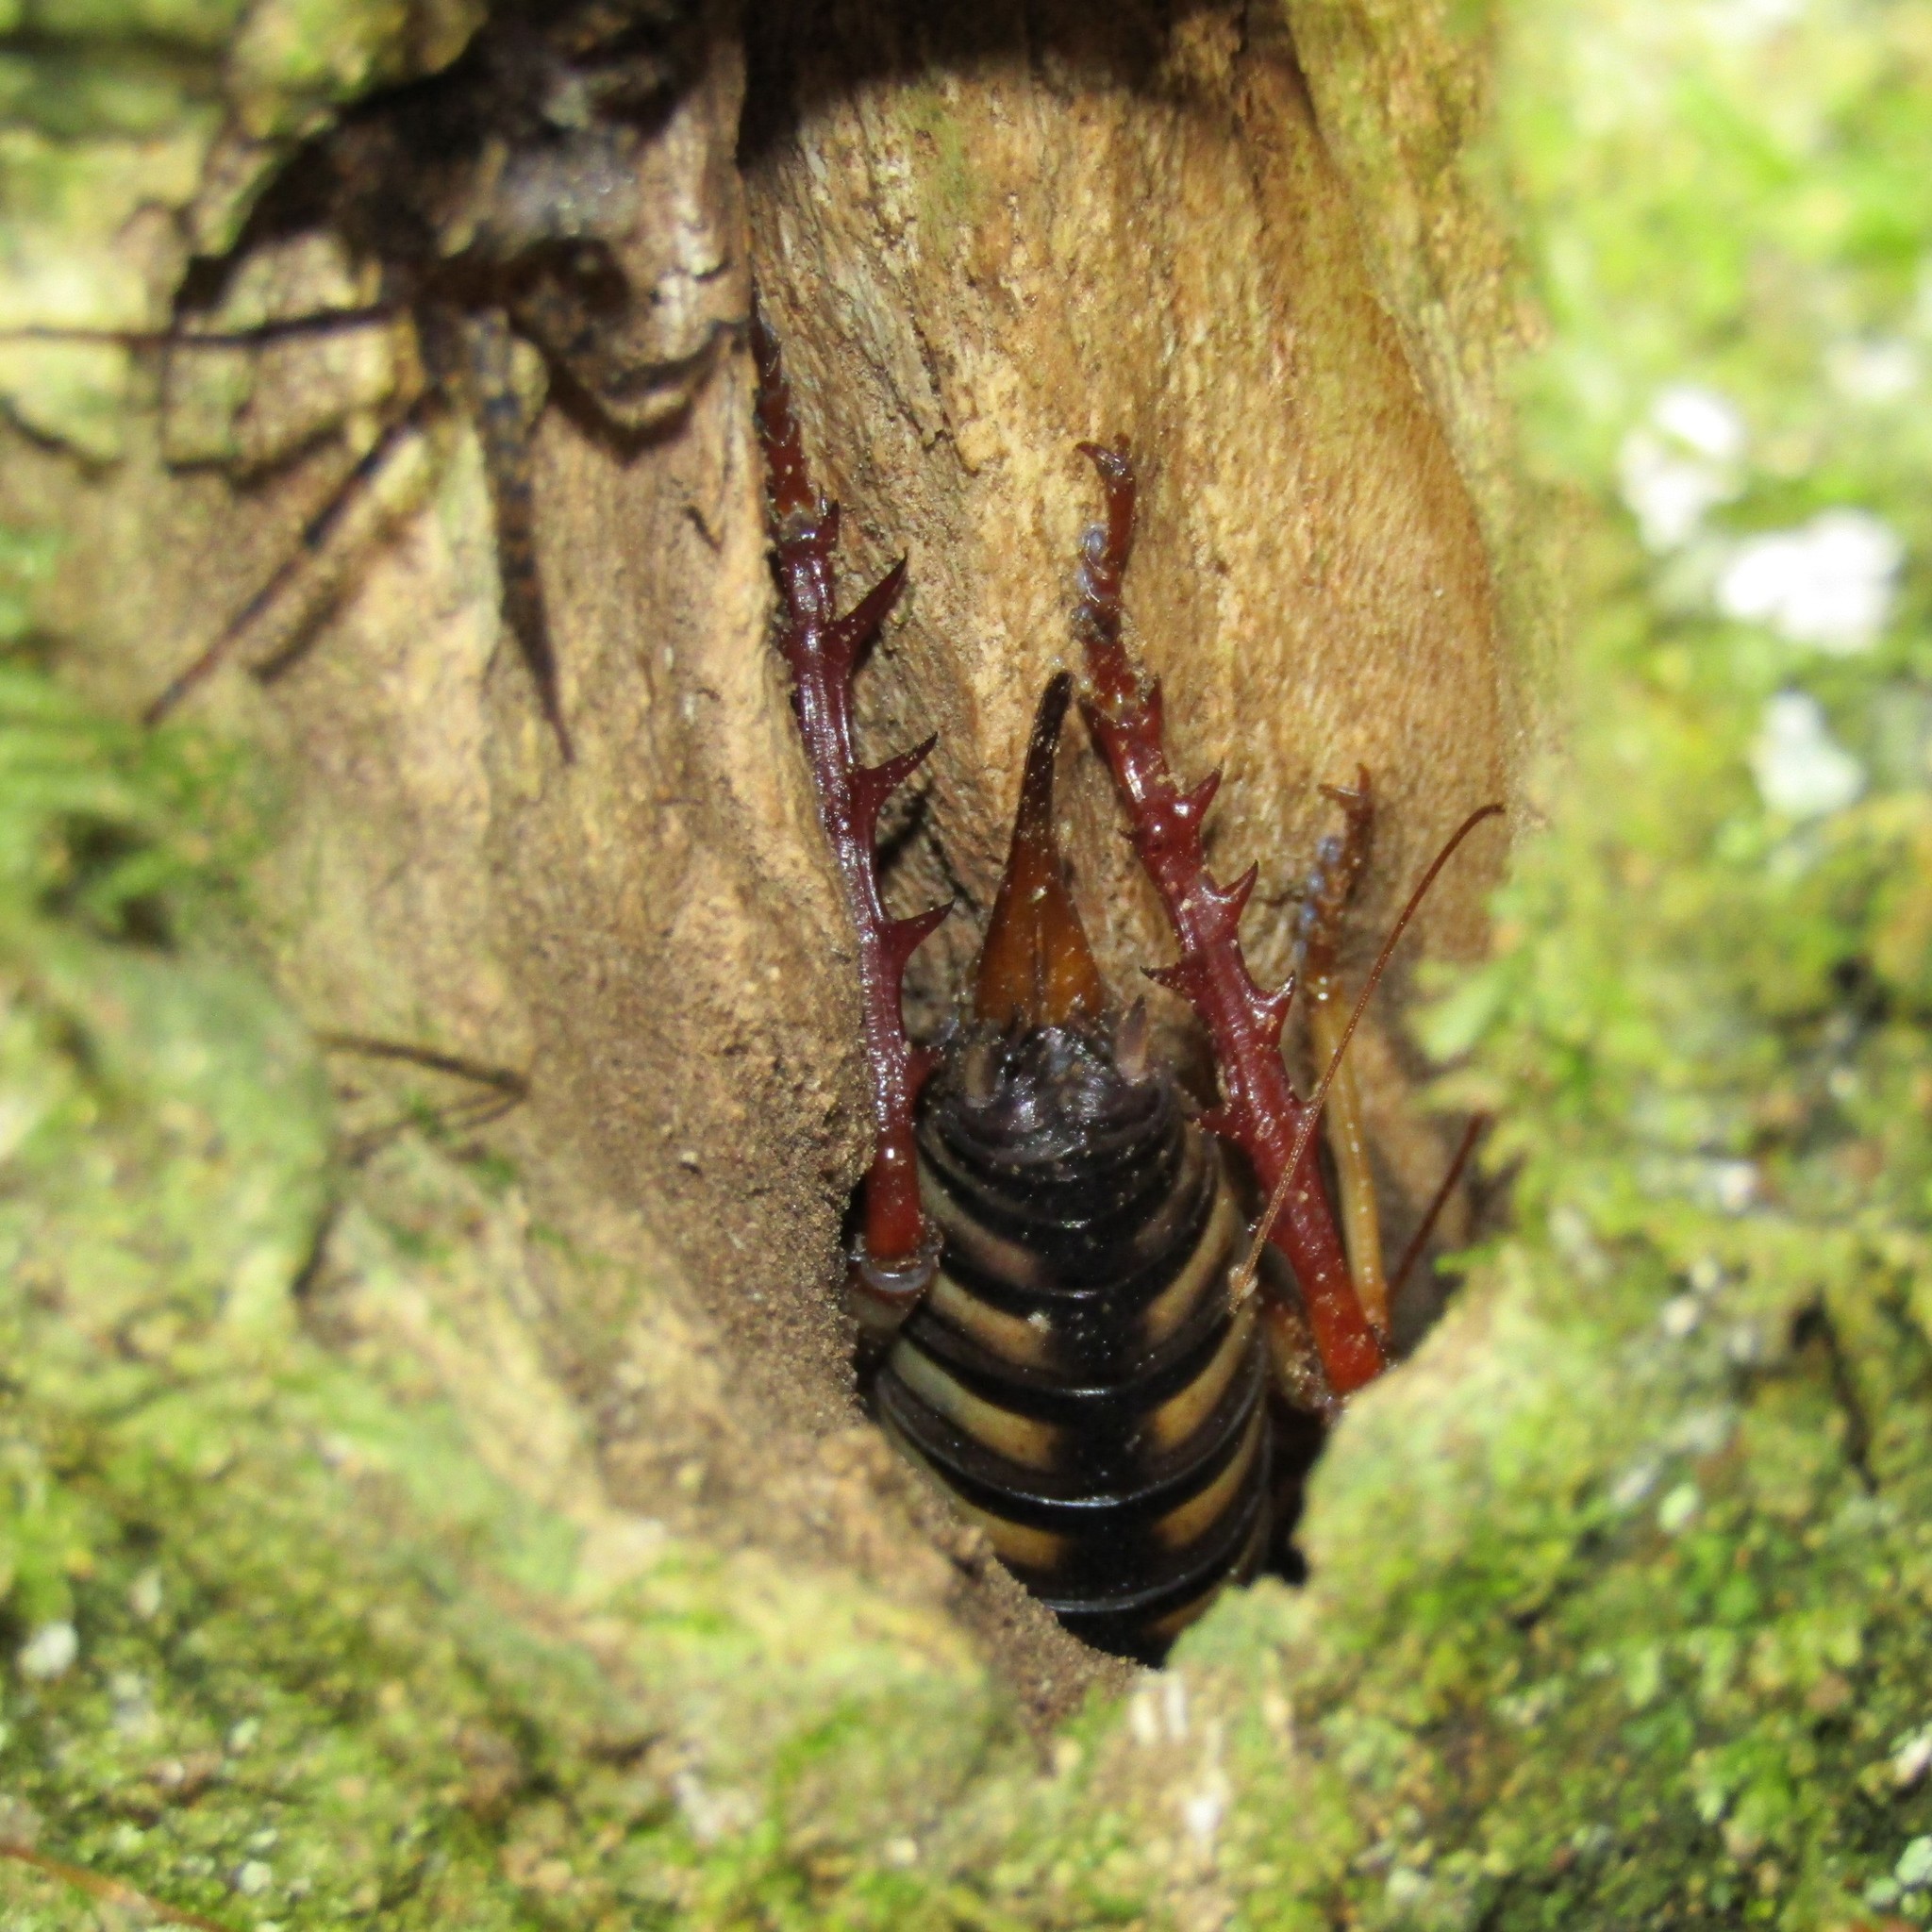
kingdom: Animalia
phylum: Arthropoda
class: Insecta
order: Orthoptera
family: Anostostomatidae
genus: Hemideina
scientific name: Hemideina crassidens
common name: Wellington tree weta
